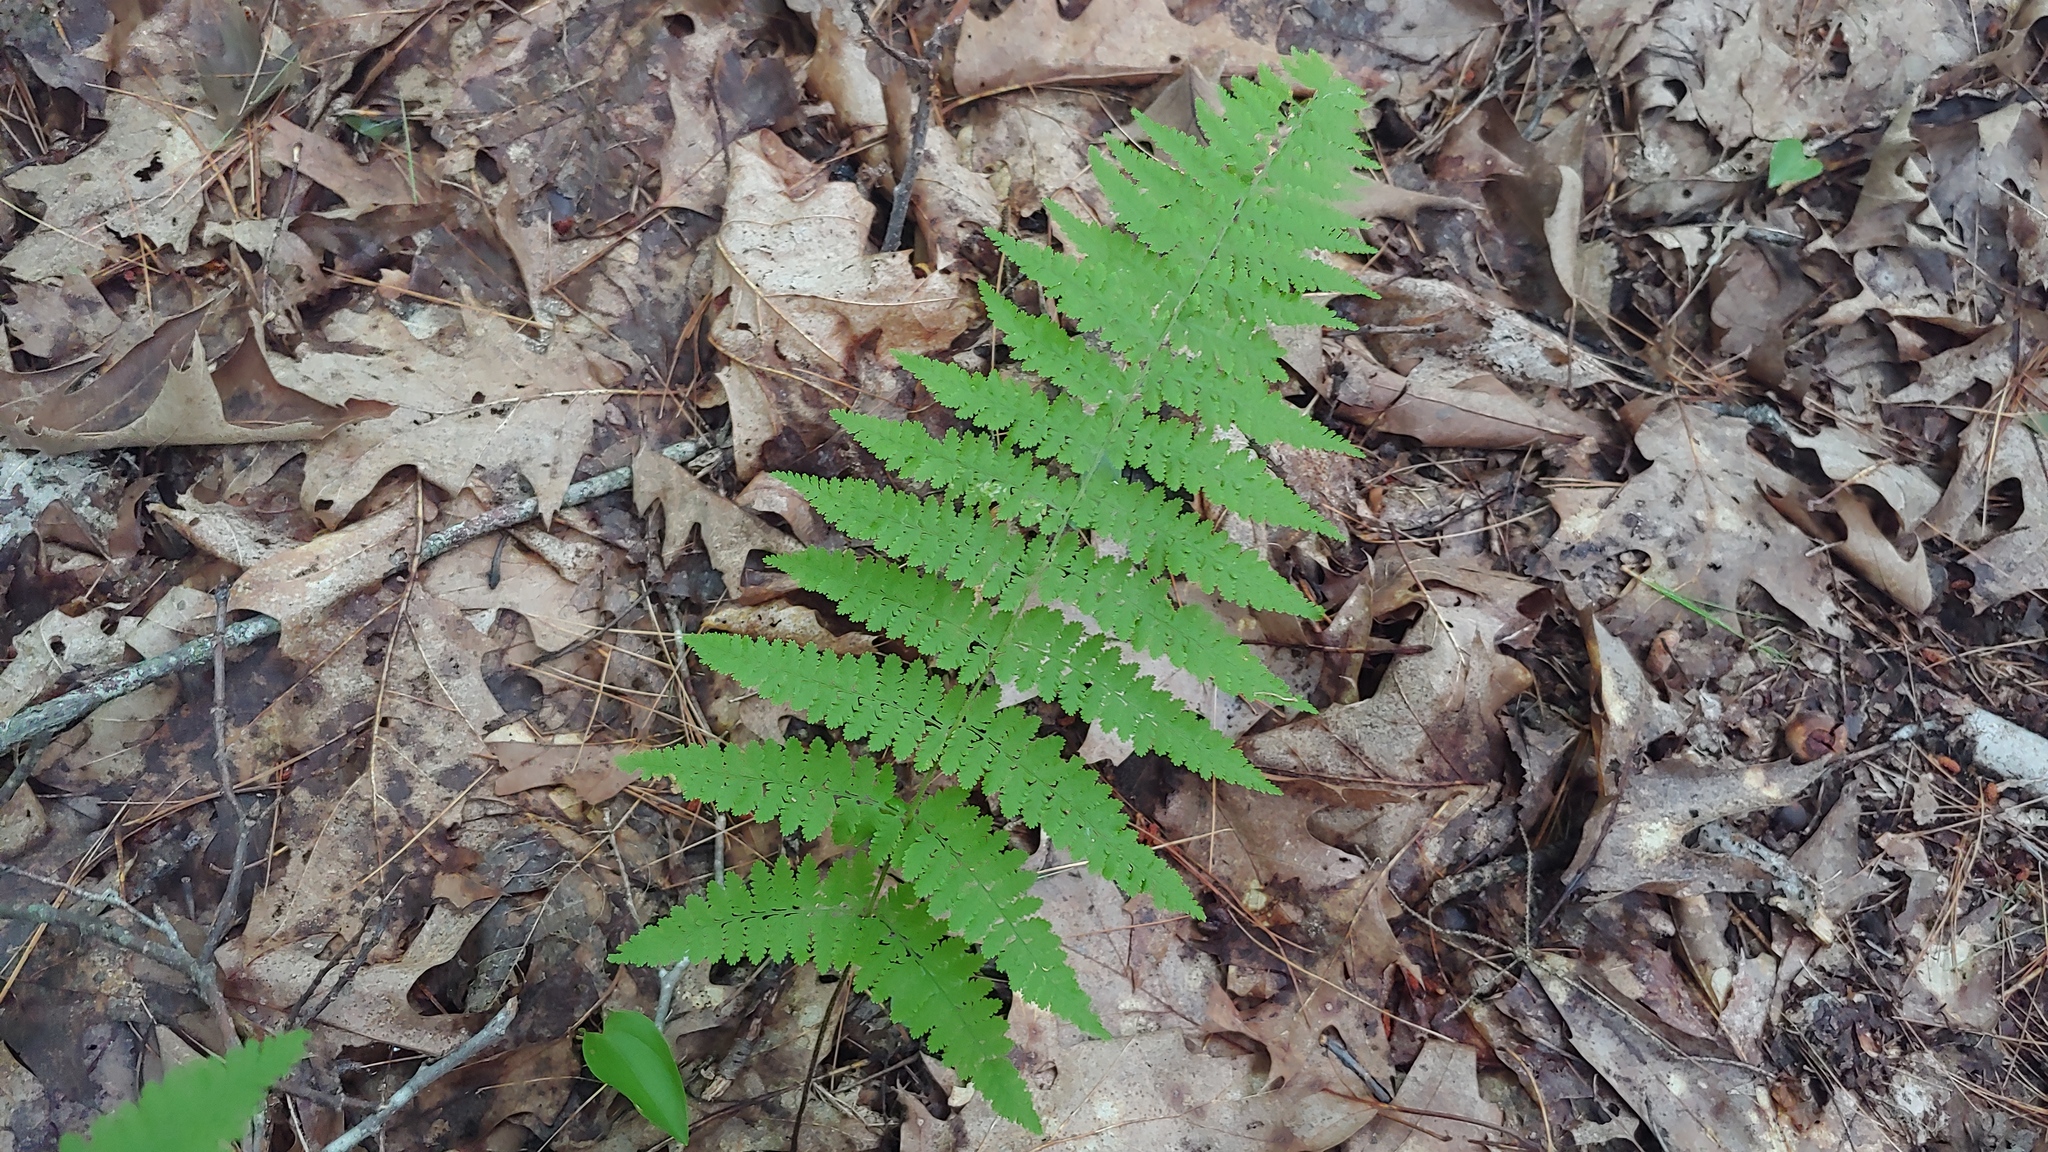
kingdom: Plantae
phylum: Tracheophyta
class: Polypodiopsida
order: Polypodiales
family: Dennstaedtiaceae
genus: Sitobolium
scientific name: Sitobolium punctilobum
